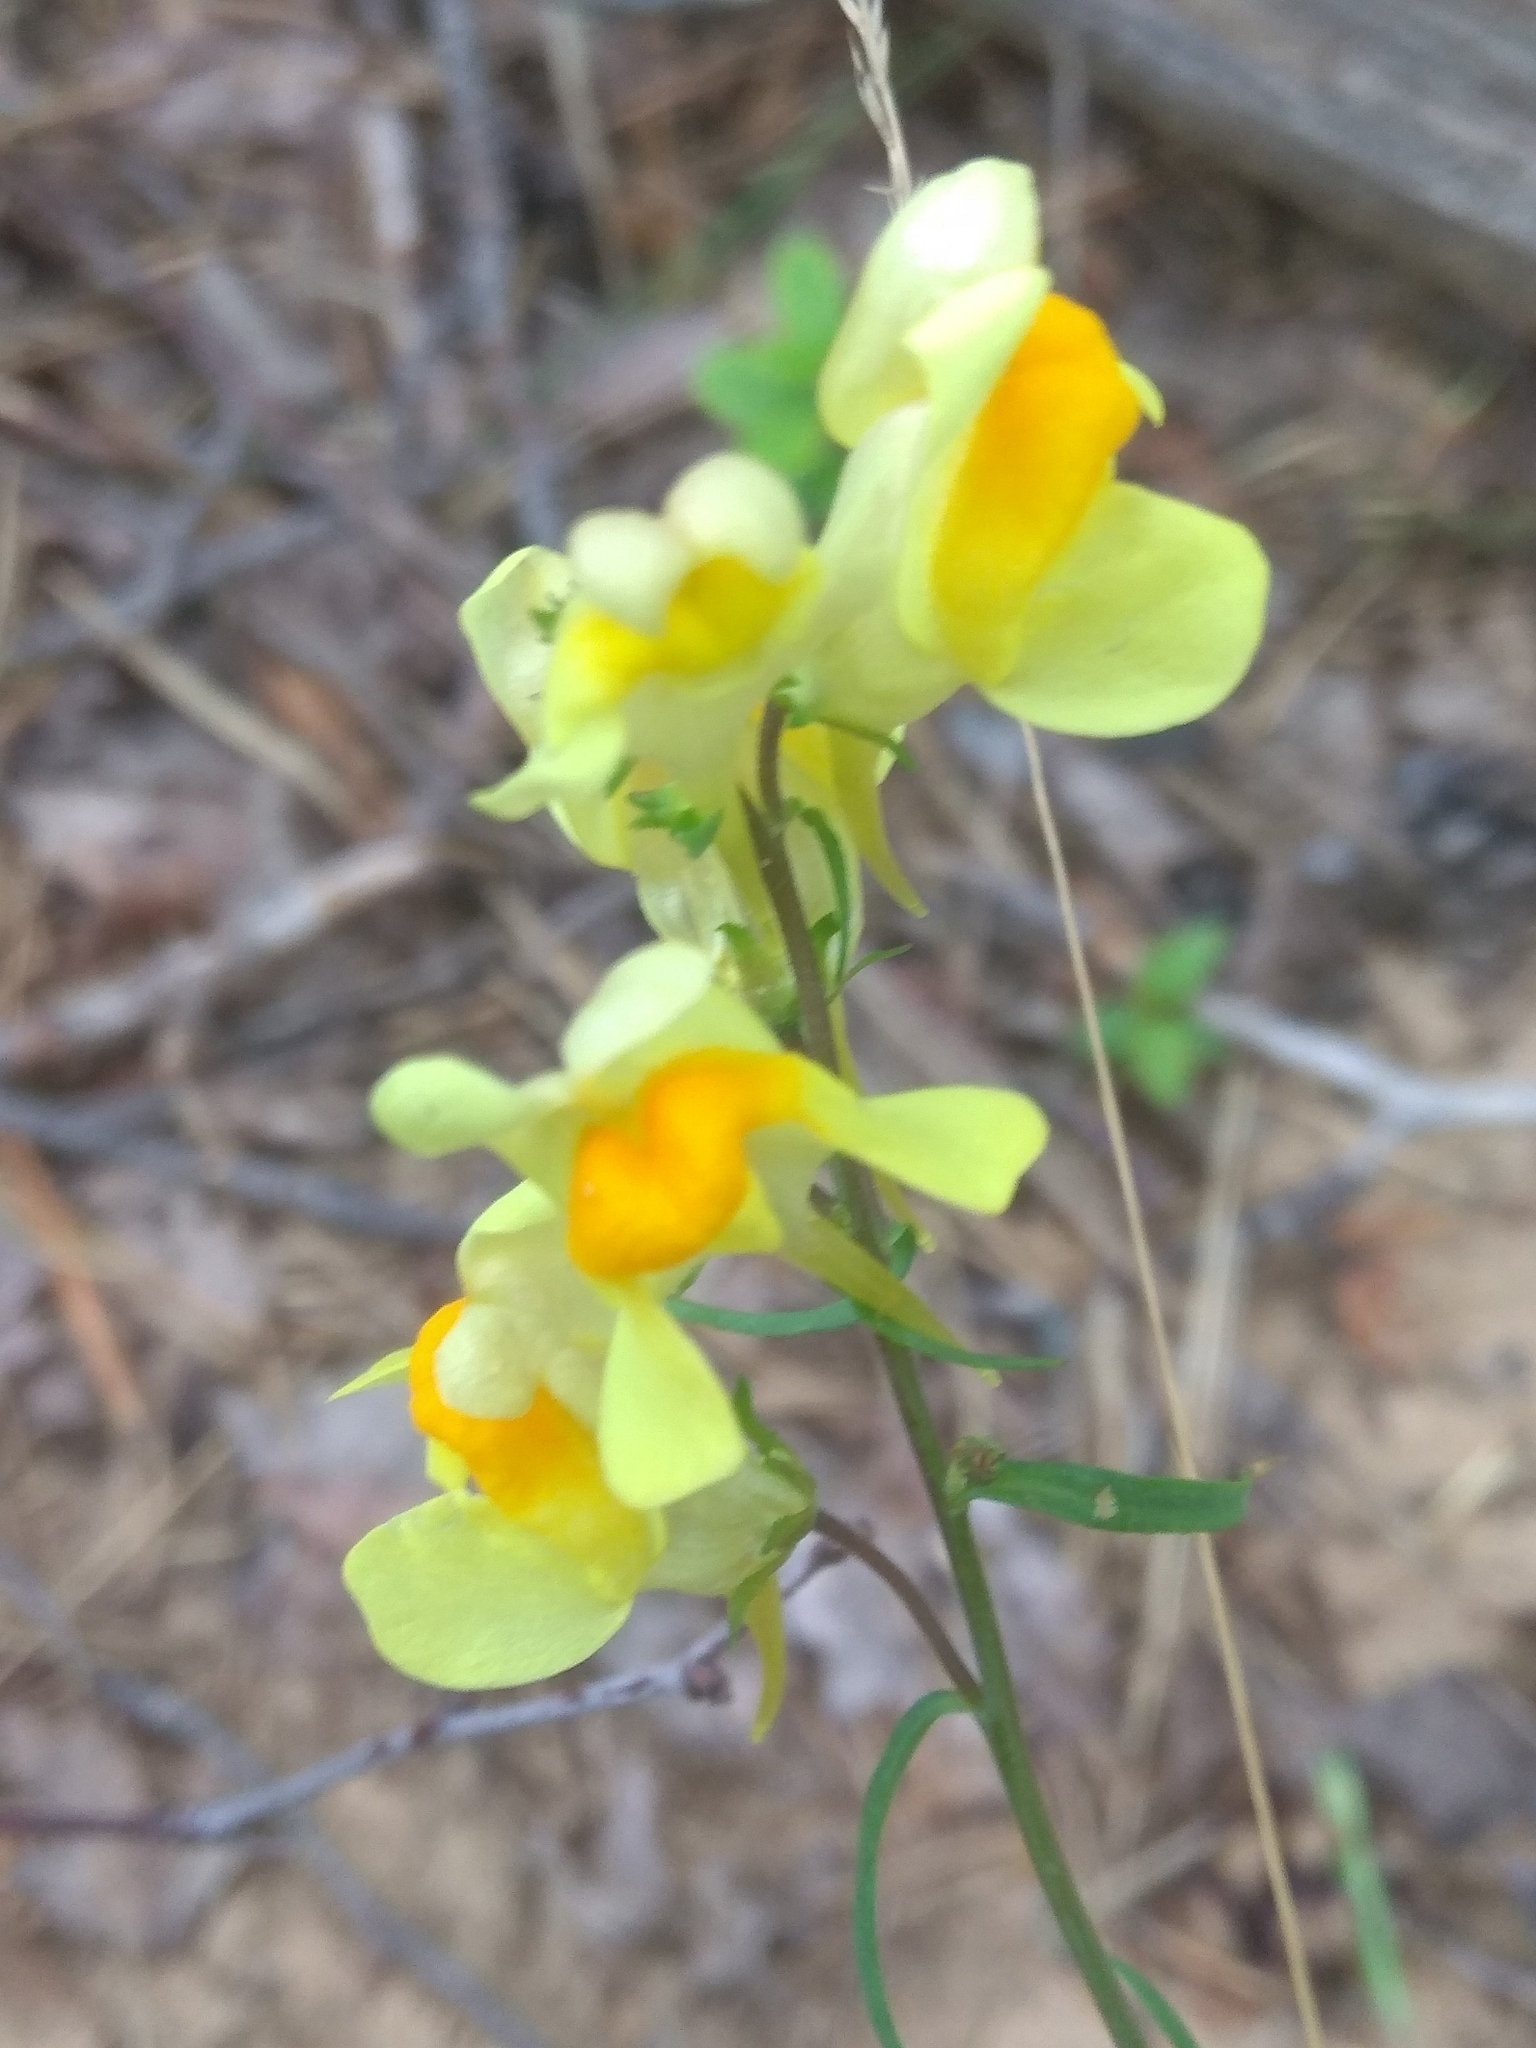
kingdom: Plantae
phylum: Tracheophyta
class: Magnoliopsida
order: Lamiales
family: Plantaginaceae
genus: Linaria
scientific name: Linaria vulgaris
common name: Butter and eggs
